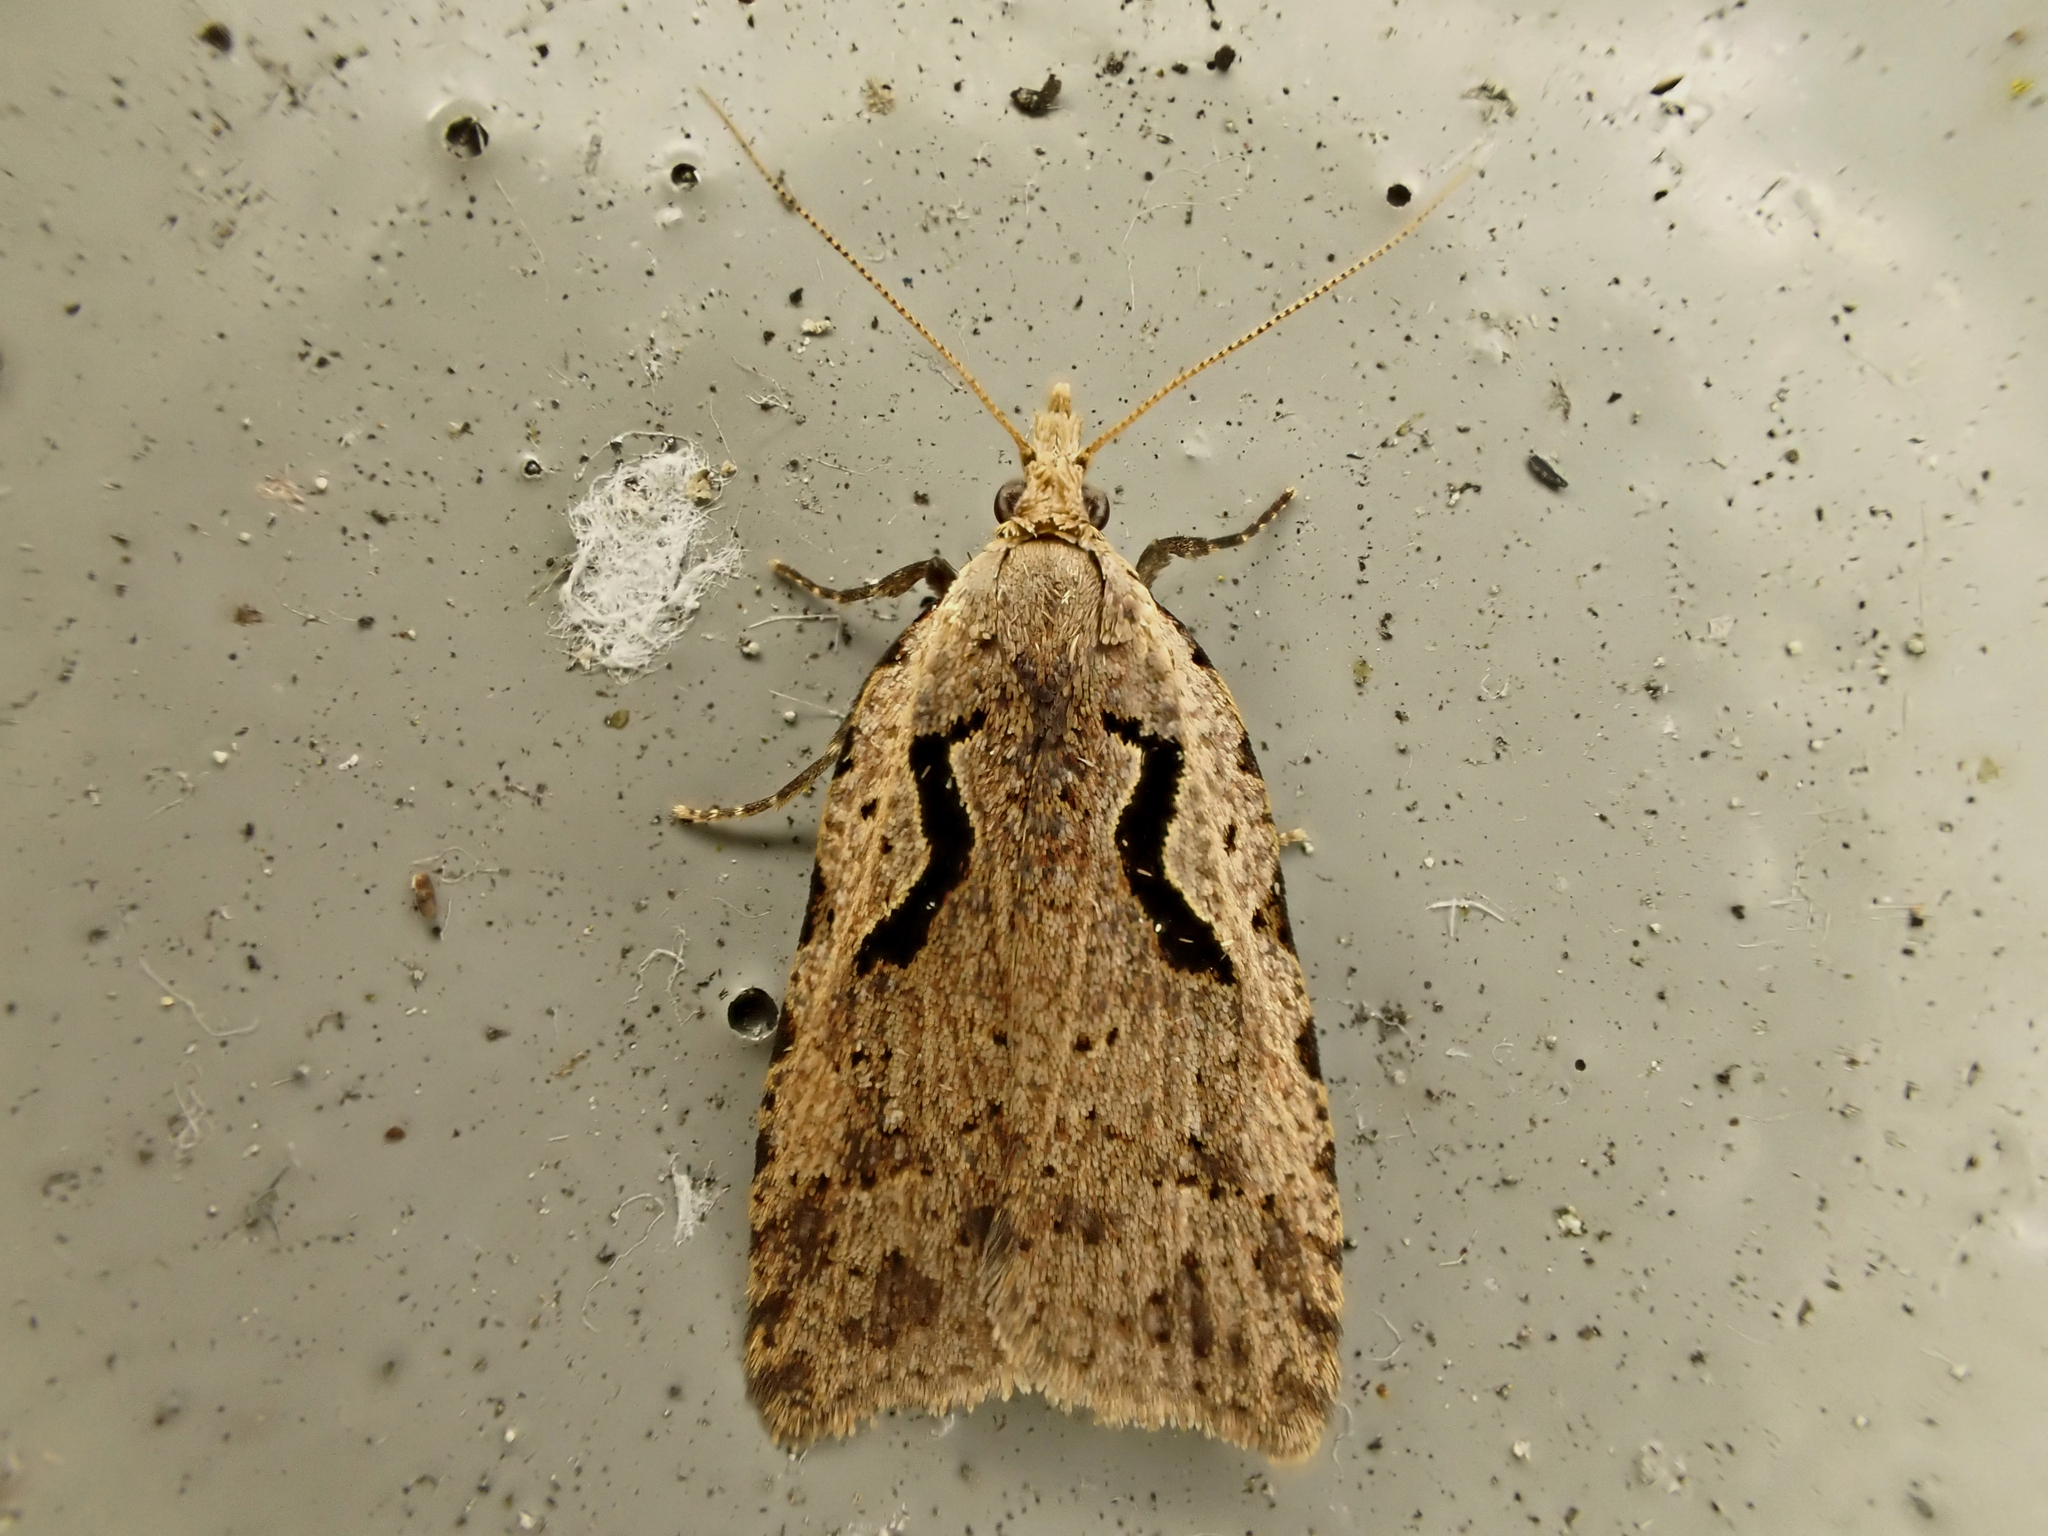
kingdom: Animalia
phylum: Arthropoda
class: Insecta
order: Lepidoptera
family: Tortricidae
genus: Cnephasia
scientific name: Cnephasia jactatana
